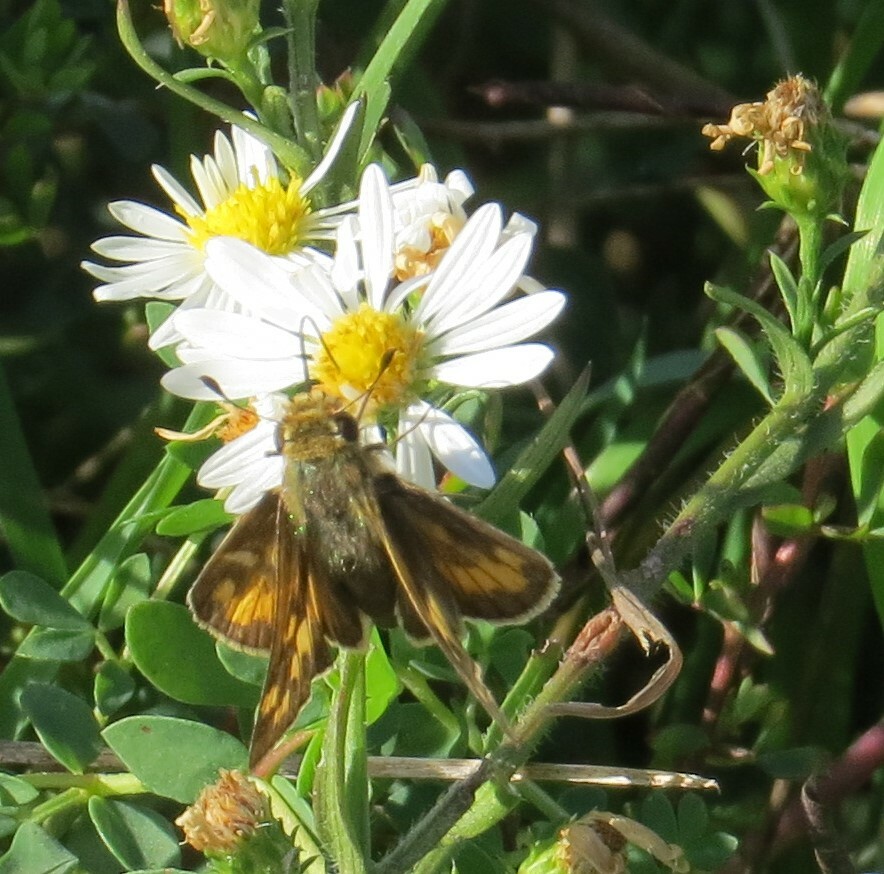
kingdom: Animalia
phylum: Arthropoda
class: Insecta
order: Lepidoptera
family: Hesperiidae
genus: Hylephila
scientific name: Hylephila phyleus
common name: Fiery skipper
